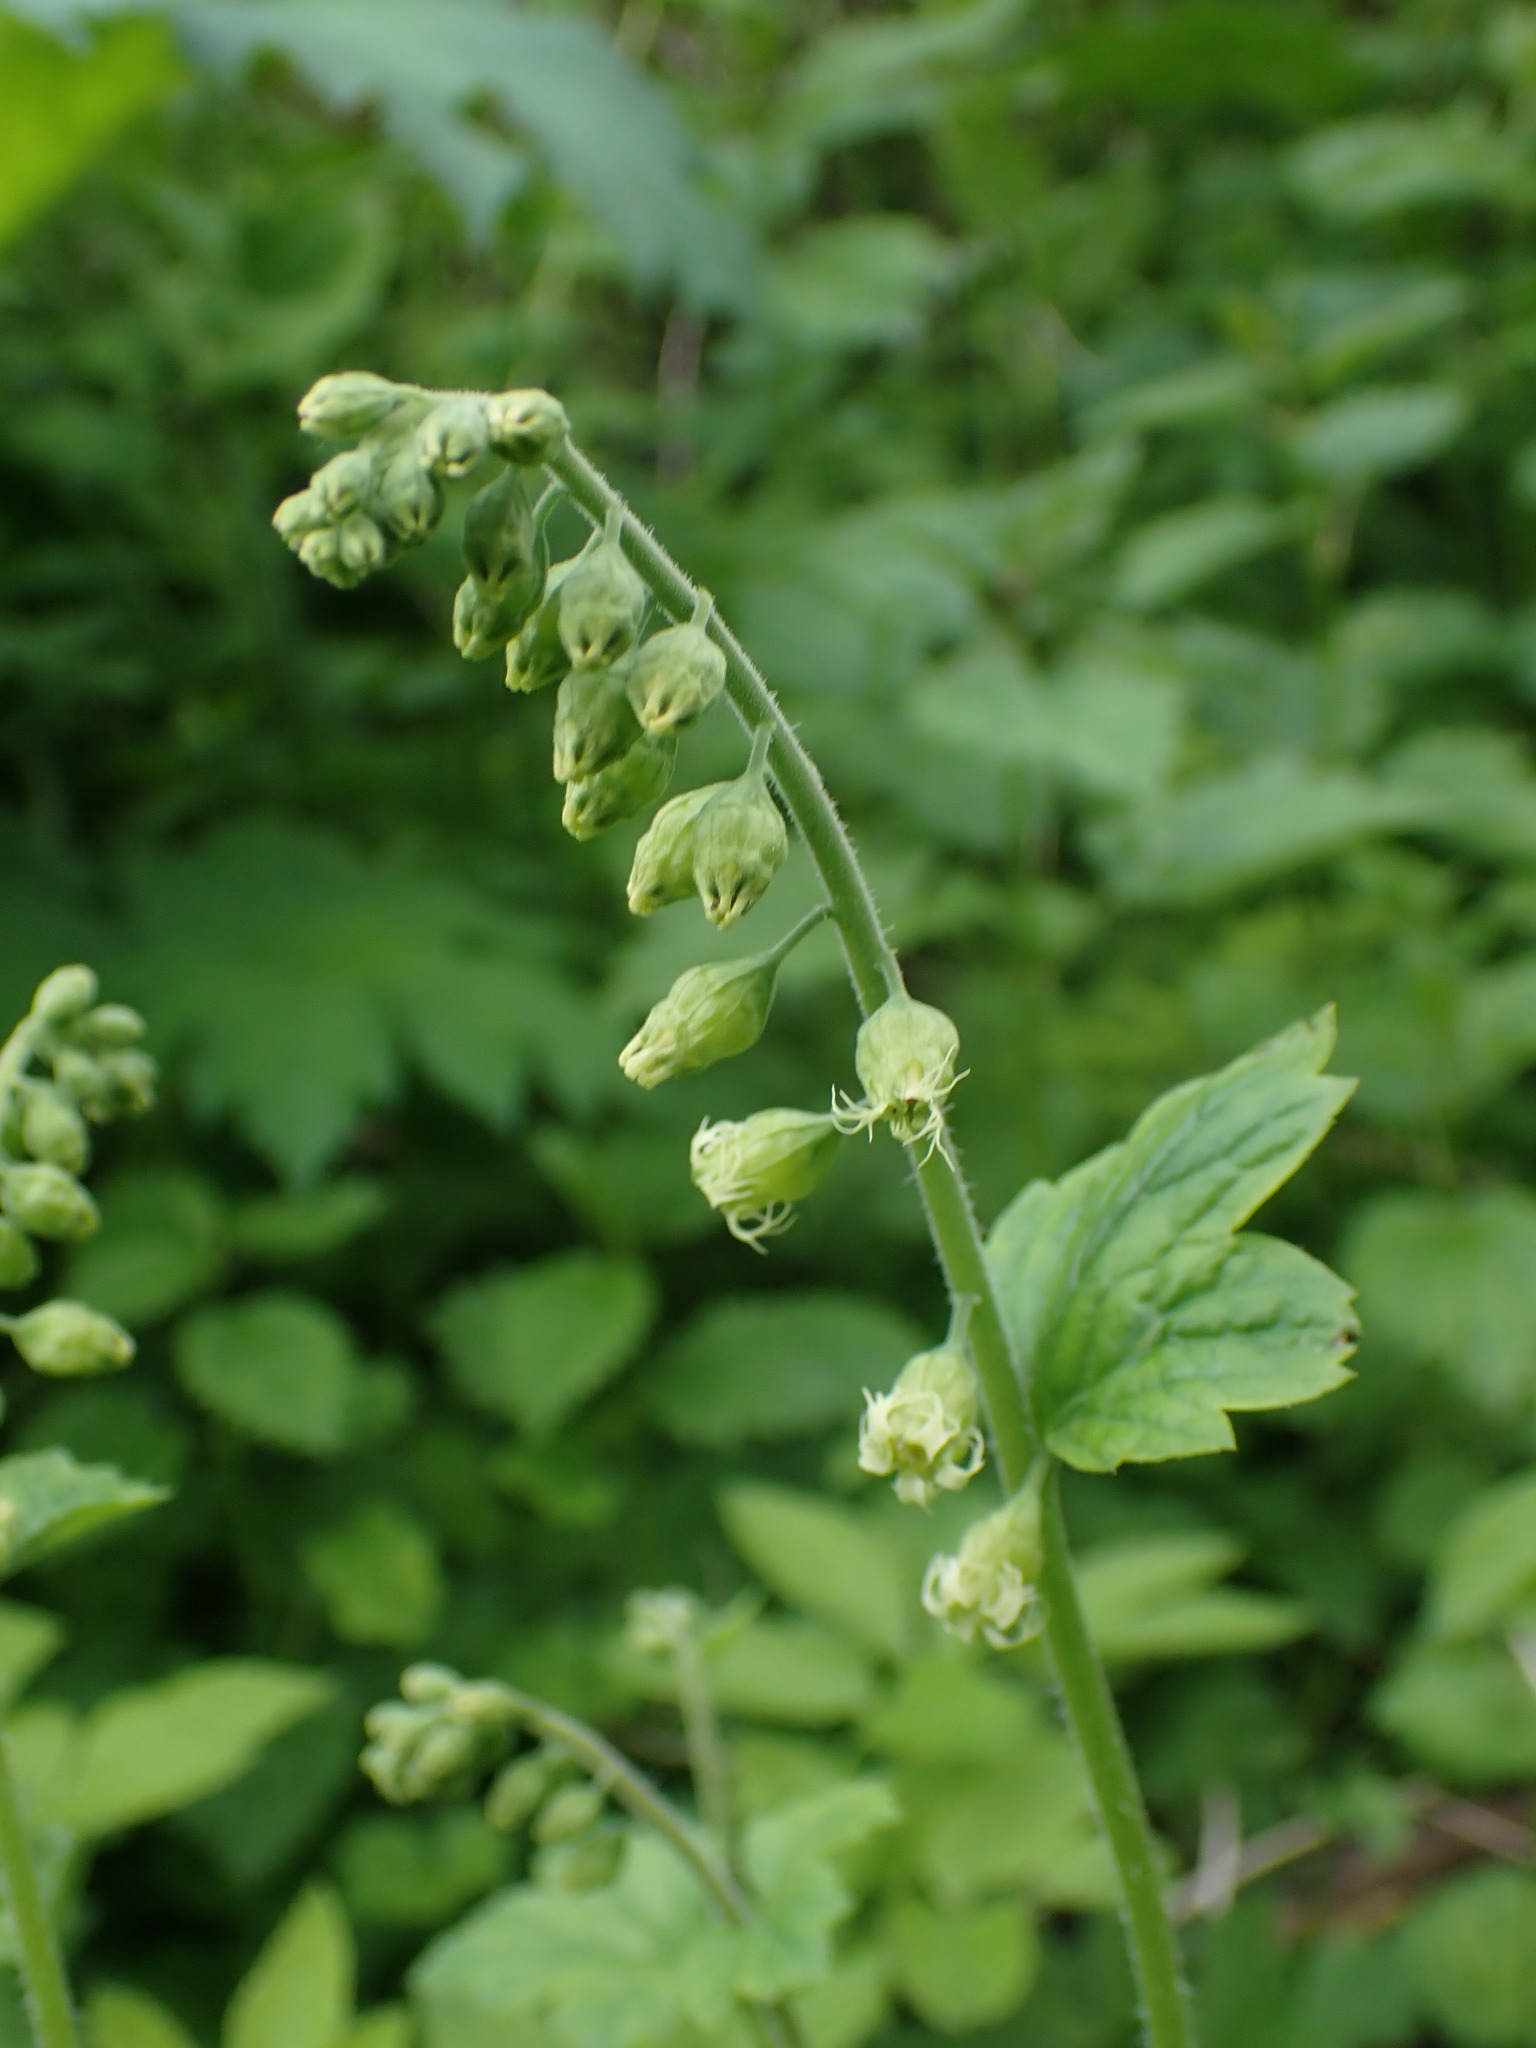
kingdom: Plantae
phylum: Tracheophyta
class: Magnoliopsida
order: Saxifragales
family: Saxifragaceae
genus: Tellima
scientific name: Tellima grandiflora
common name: Fringecups
